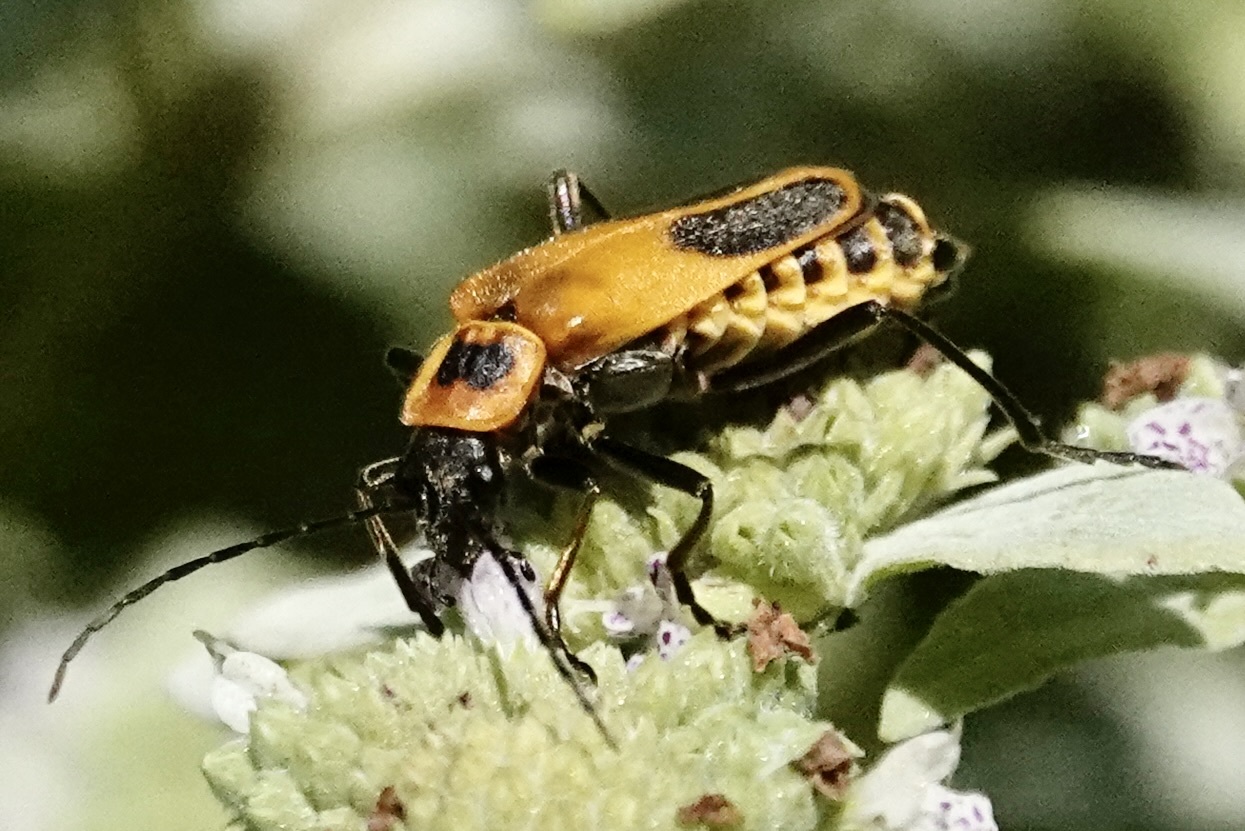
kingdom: Animalia
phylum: Arthropoda
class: Insecta
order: Coleoptera
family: Cantharidae
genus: Chauliognathus
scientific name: Chauliognathus pensylvanicus
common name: Goldenrod soldier beetle
